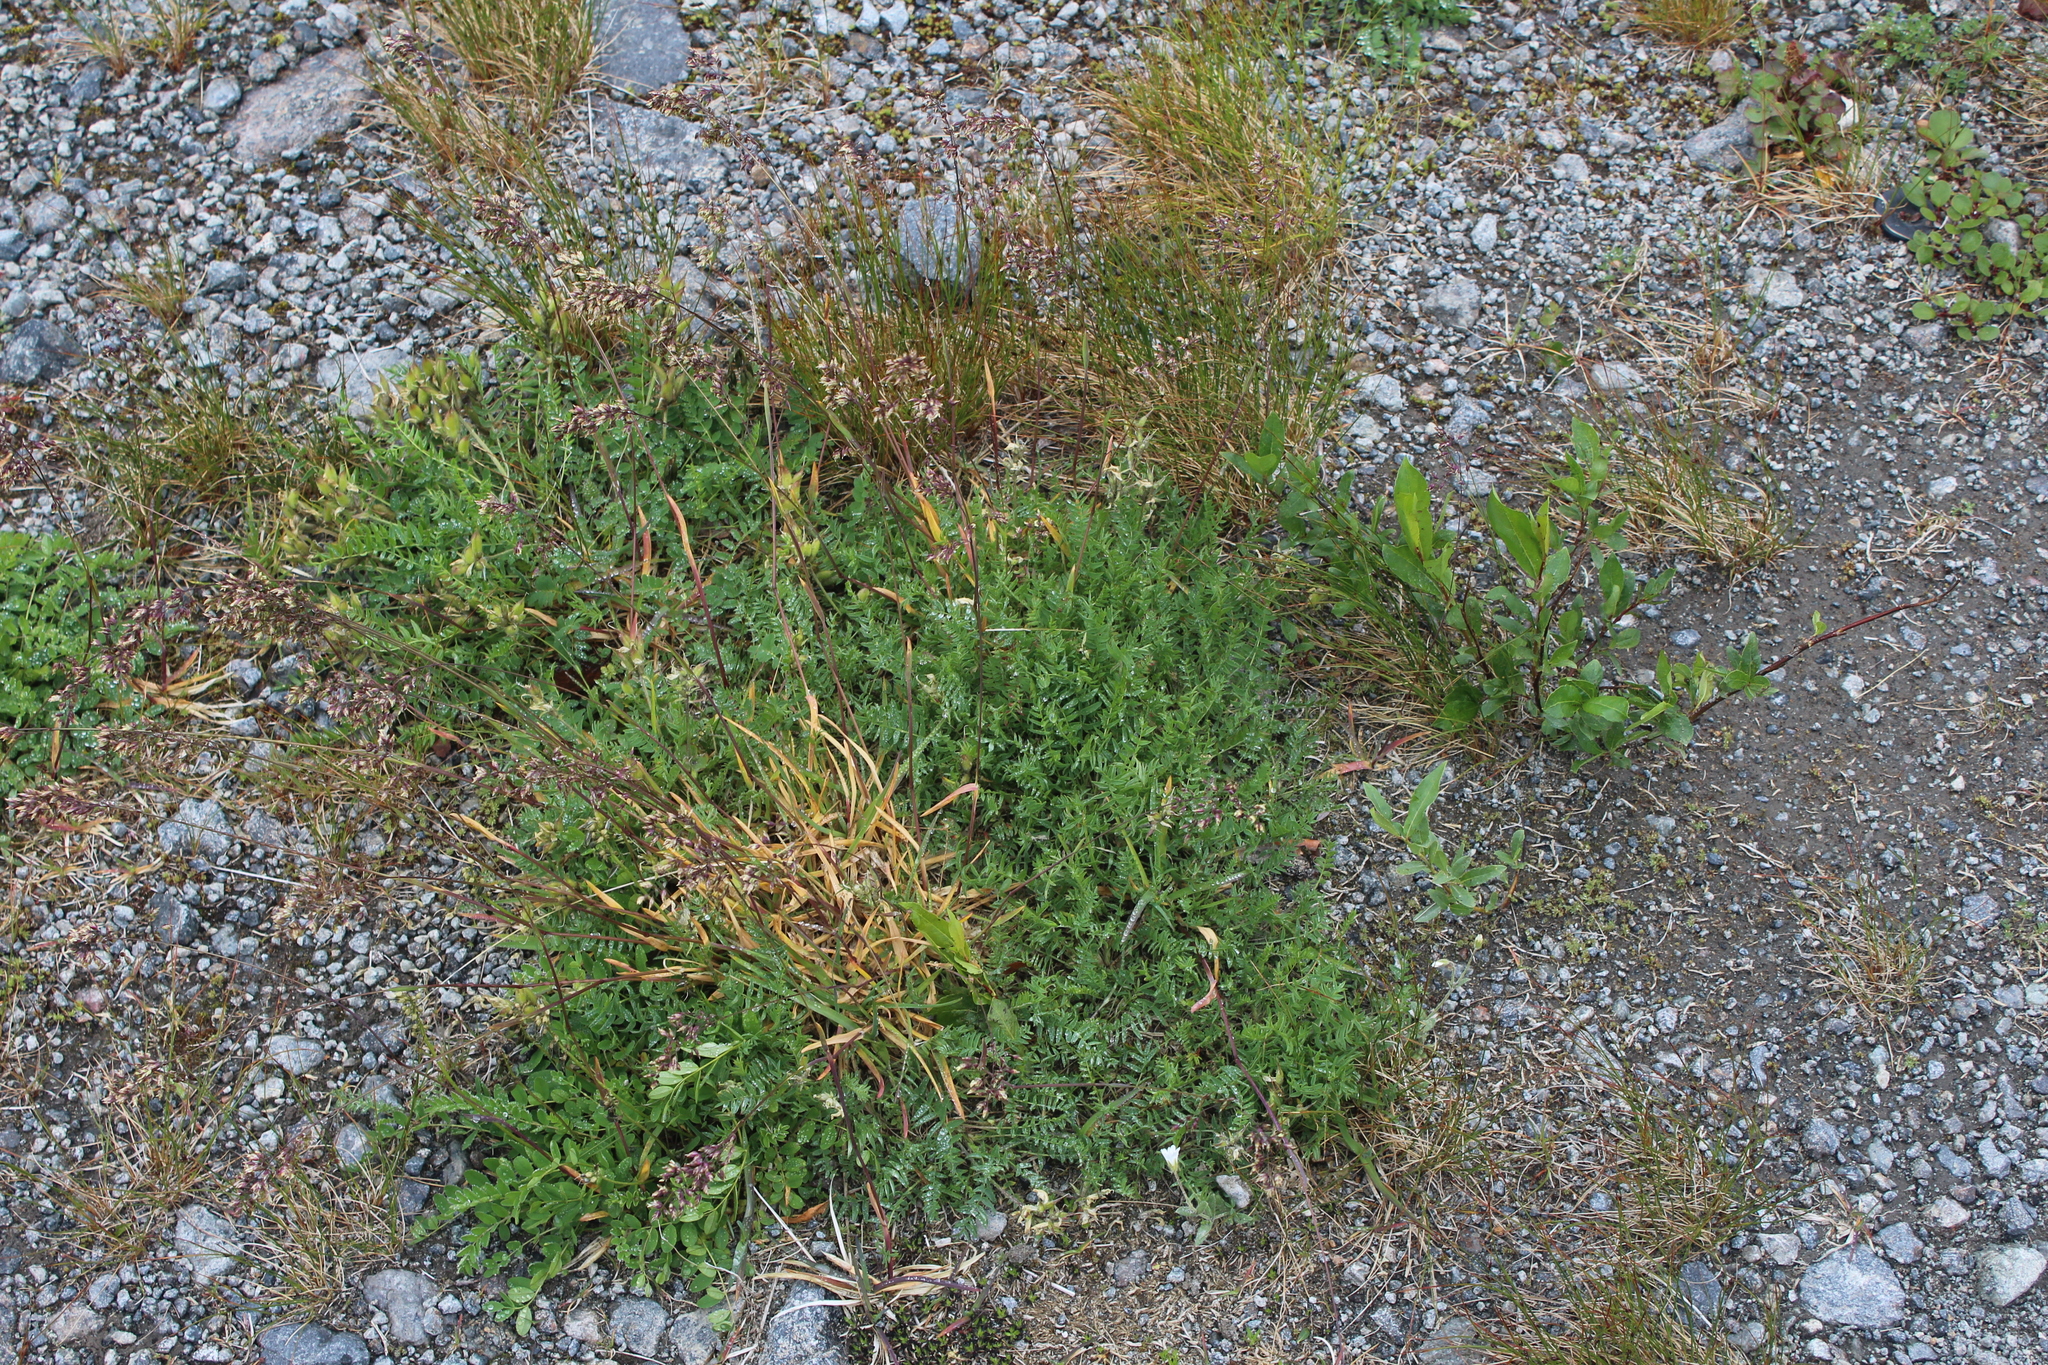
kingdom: Plantae
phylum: Tracheophyta
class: Liliopsida
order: Poales
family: Poaceae
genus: Poa
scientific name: Poa alpina
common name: Alpine bluegrass
